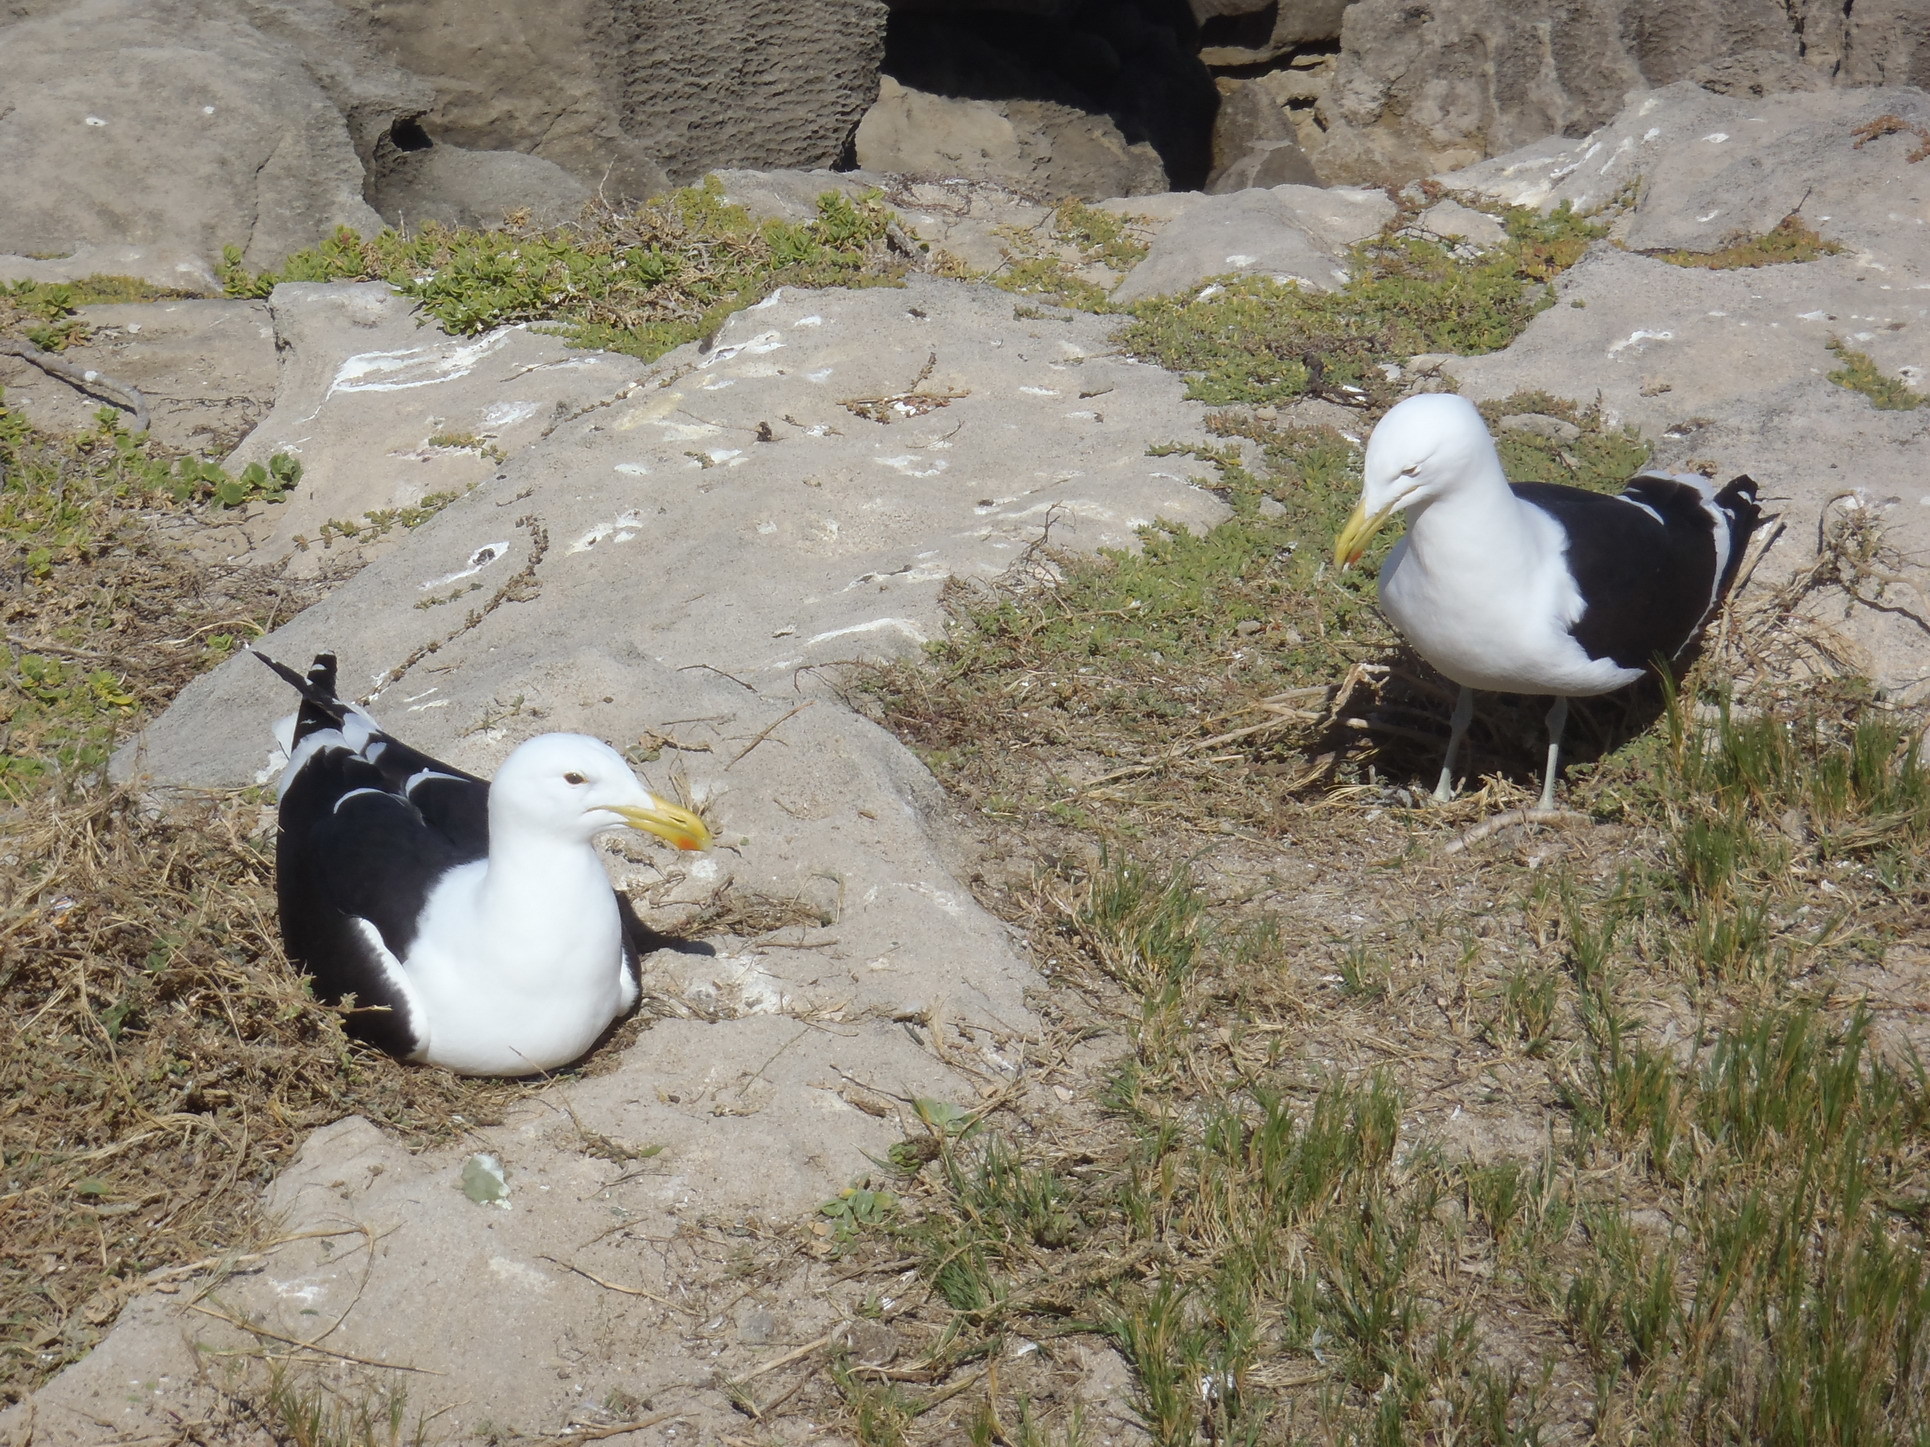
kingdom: Animalia
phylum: Chordata
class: Aves
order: Charadriiformes
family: Laridae
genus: Larus
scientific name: Larus dominicanus
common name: Kelp gull
